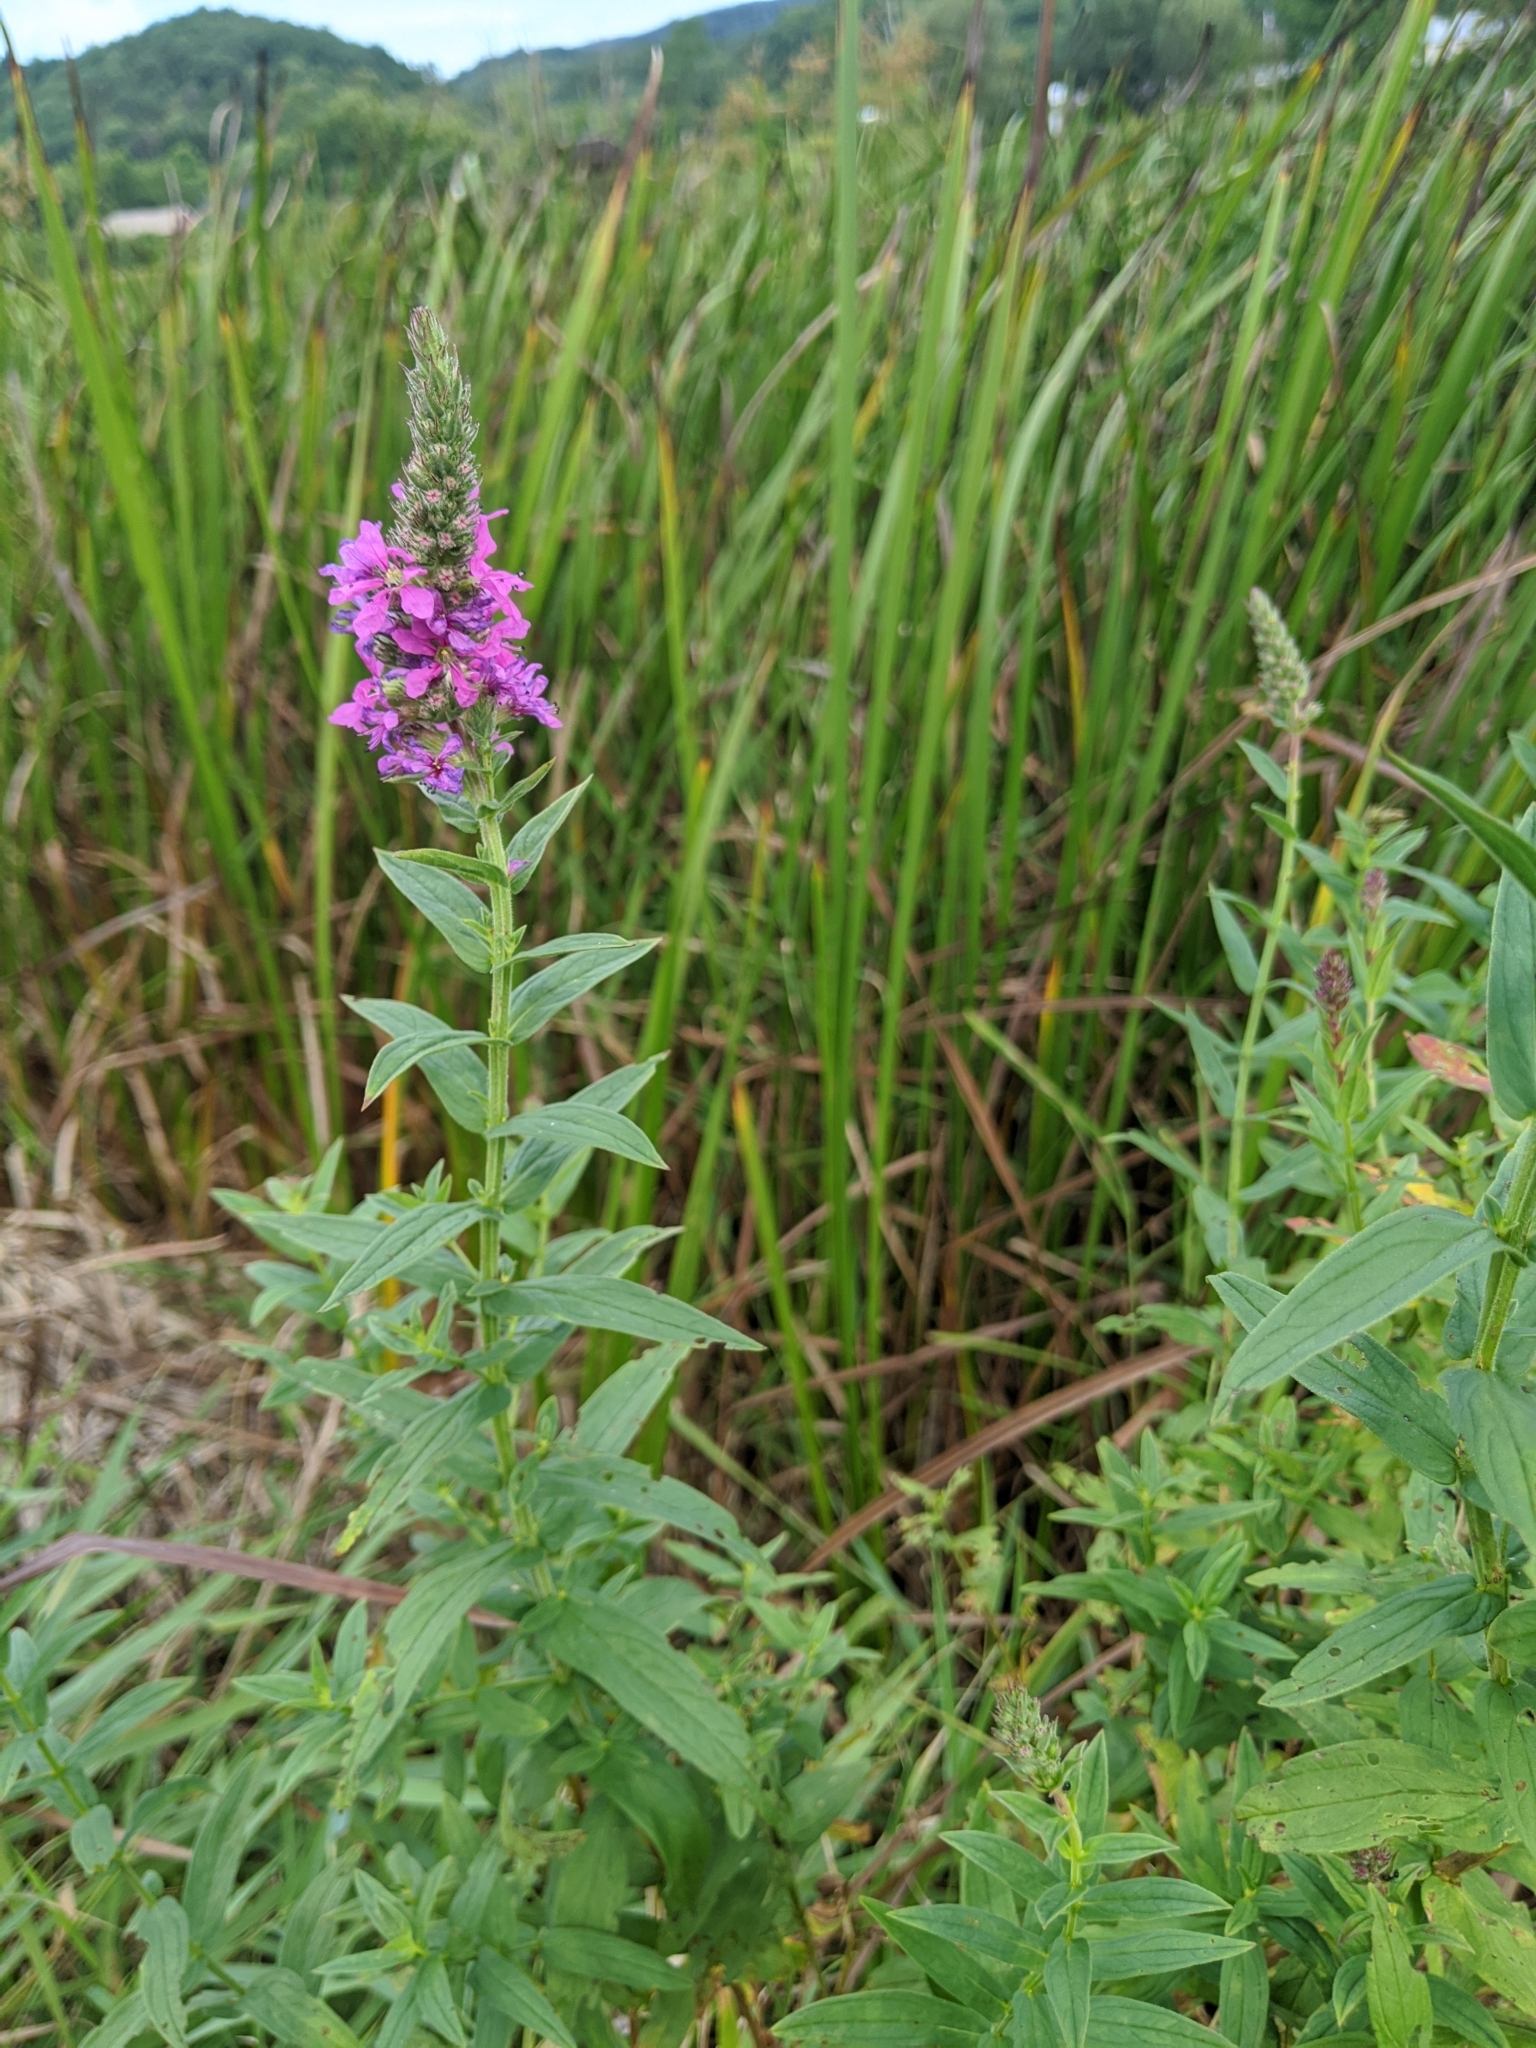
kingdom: Plantae
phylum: Tracheophyta
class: Magnoliopsida
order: Myrtales
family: Lythraceae
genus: Lythrum
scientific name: Lythrum salicaria
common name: Purple loosestrife
